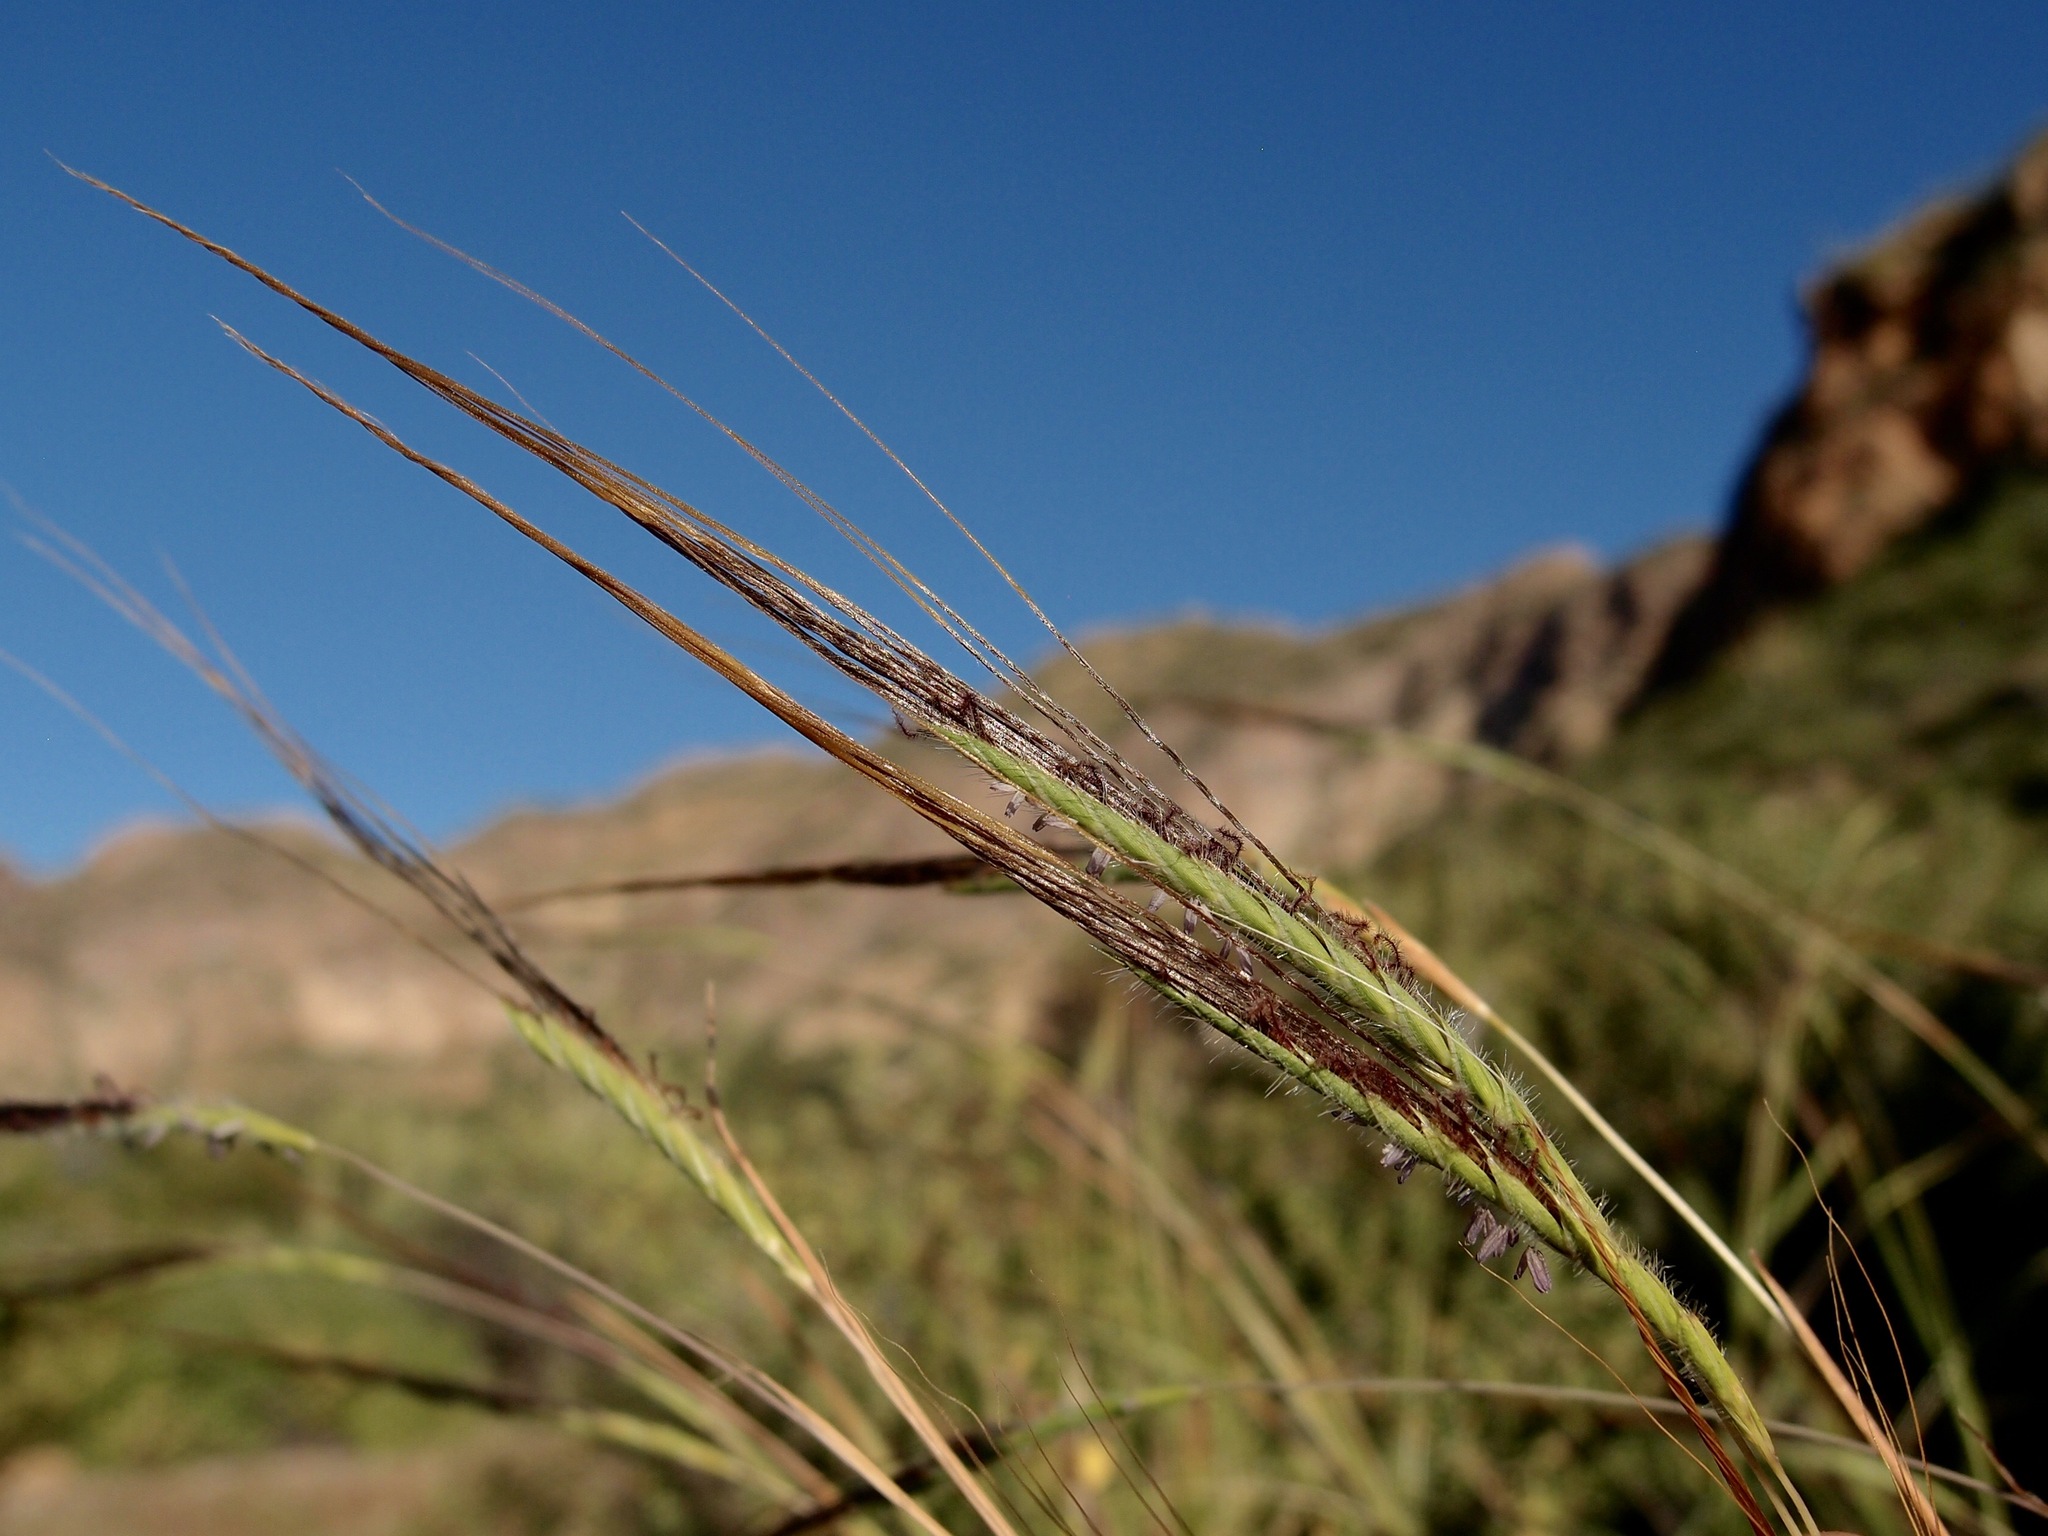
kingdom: Plantae
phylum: Tracheophyta
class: Liliopsida
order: Poales
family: Poaceae
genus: Heteropogon
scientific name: Heteropogon contortus
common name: Tanglehead
